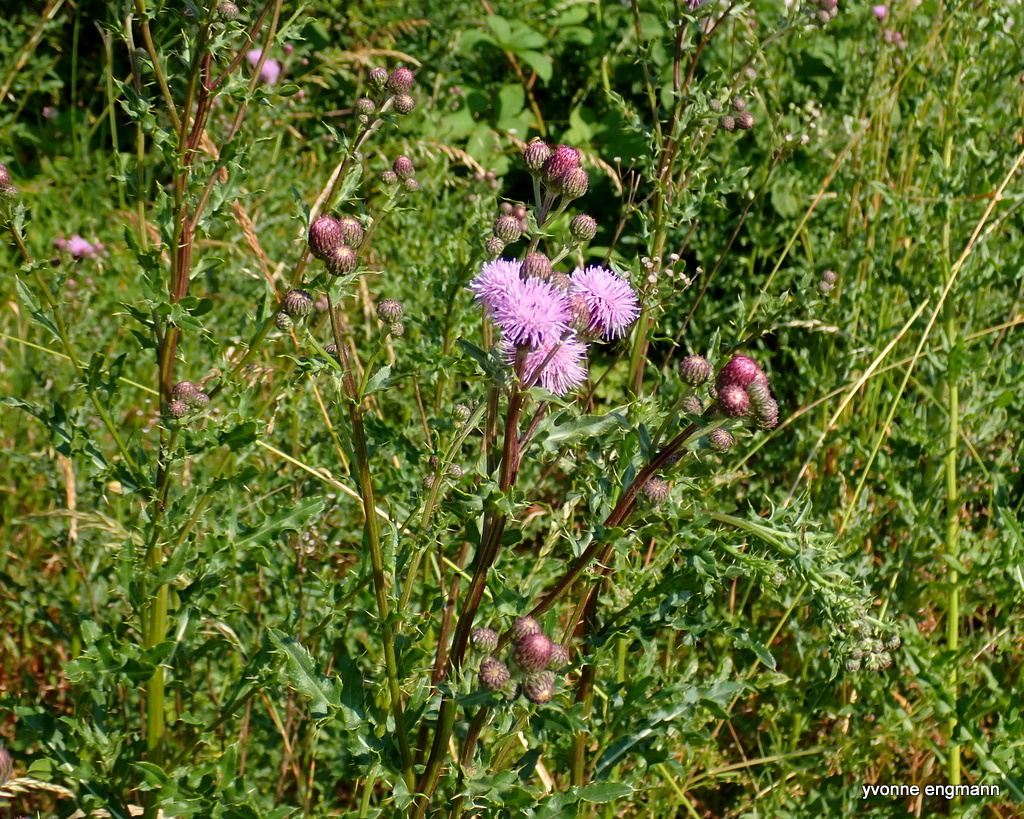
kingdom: Plantae
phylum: Tracheophyta
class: Magnoliopsida
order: Asterales
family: Asteraceae
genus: Cirsium
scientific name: Cirsium arvense
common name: Creeping thistle
